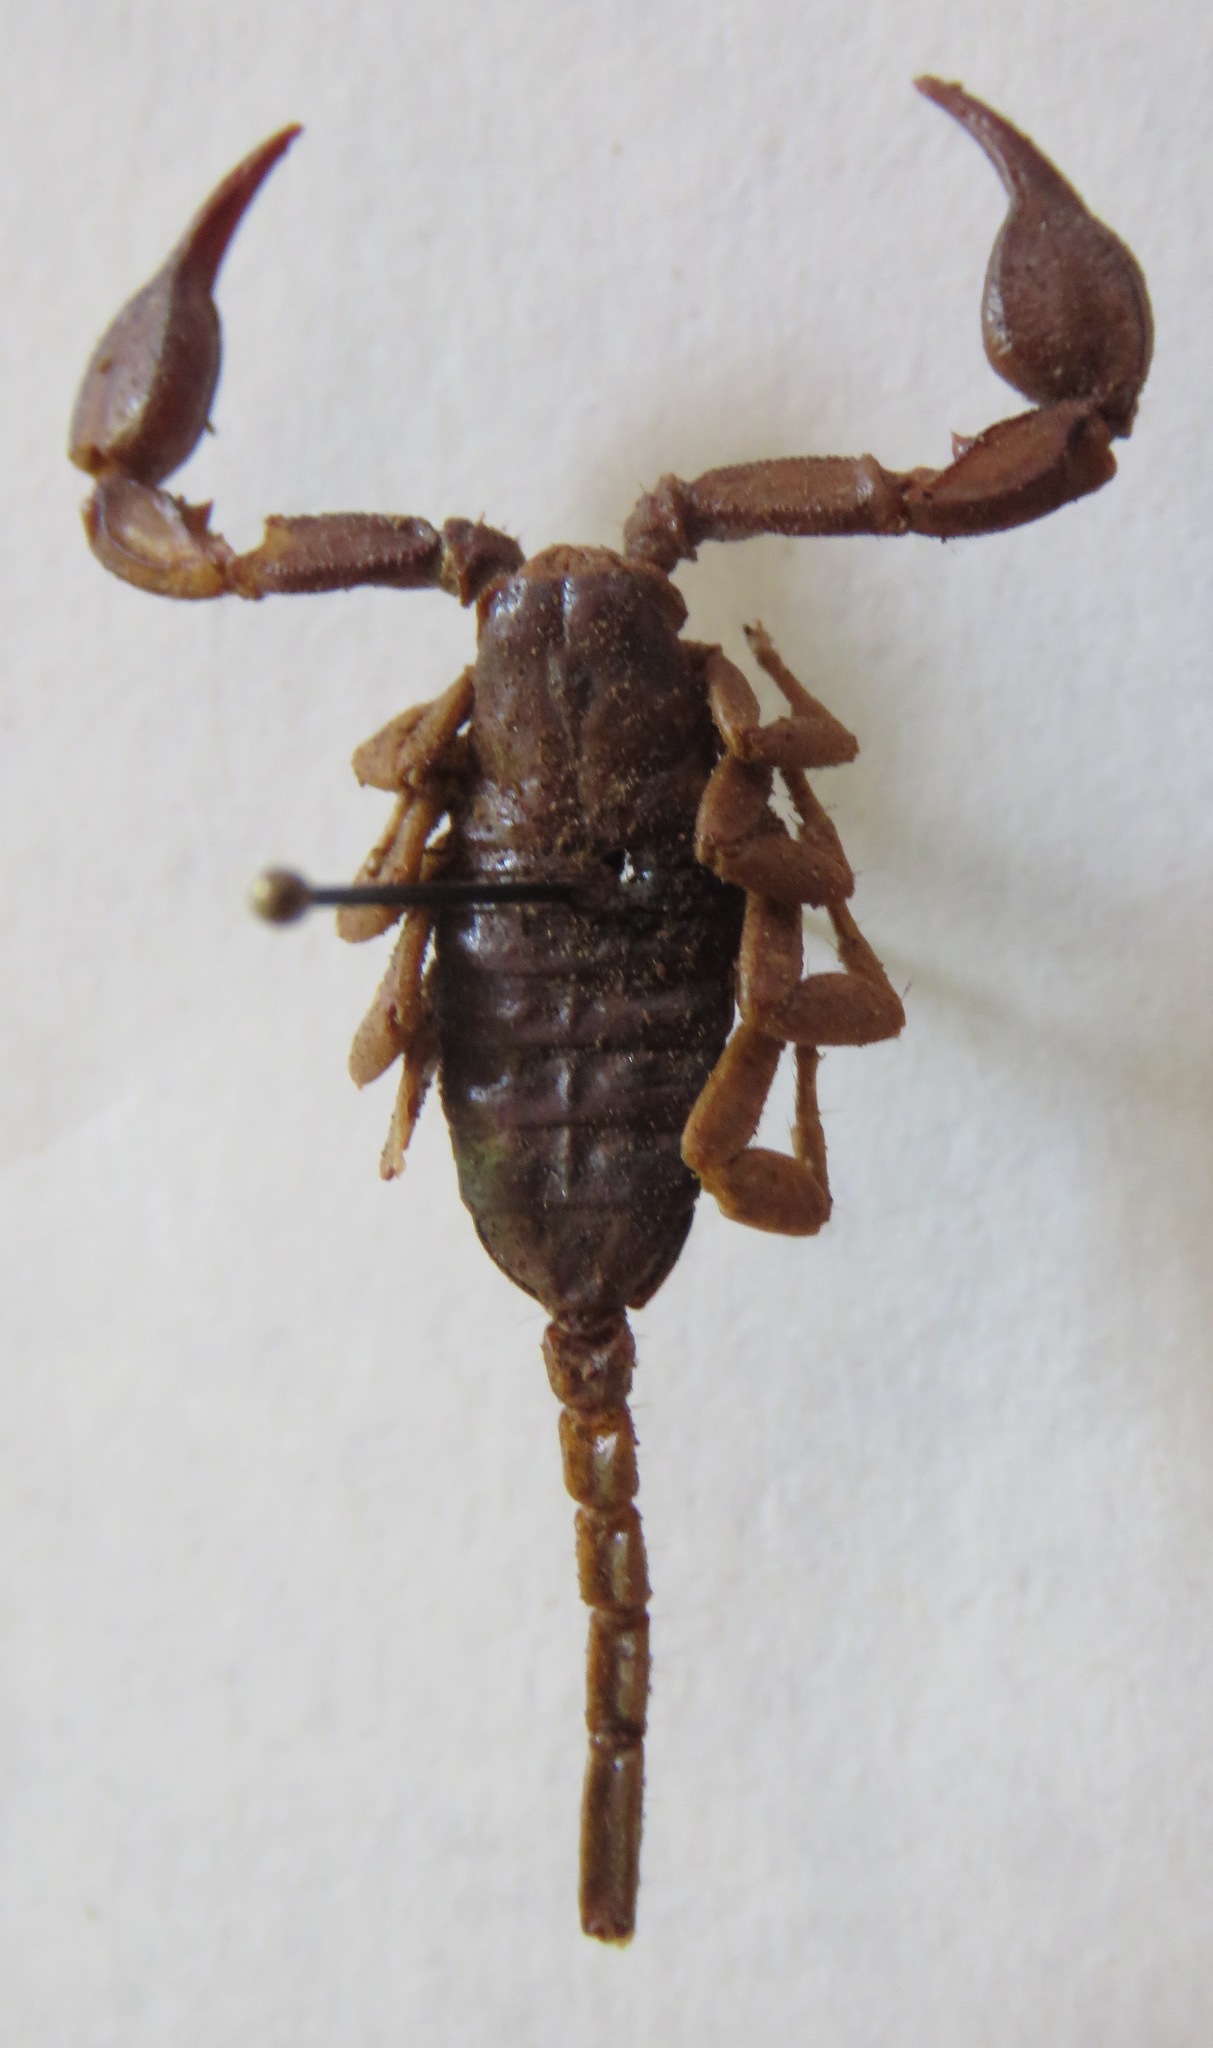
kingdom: Animalia
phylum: Arthropoda
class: Arachnida
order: Scorpiones
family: Euscorpiidae
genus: Euscorpius
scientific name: Euscorpius flavicaudis
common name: European yellow-tailed scorpion
